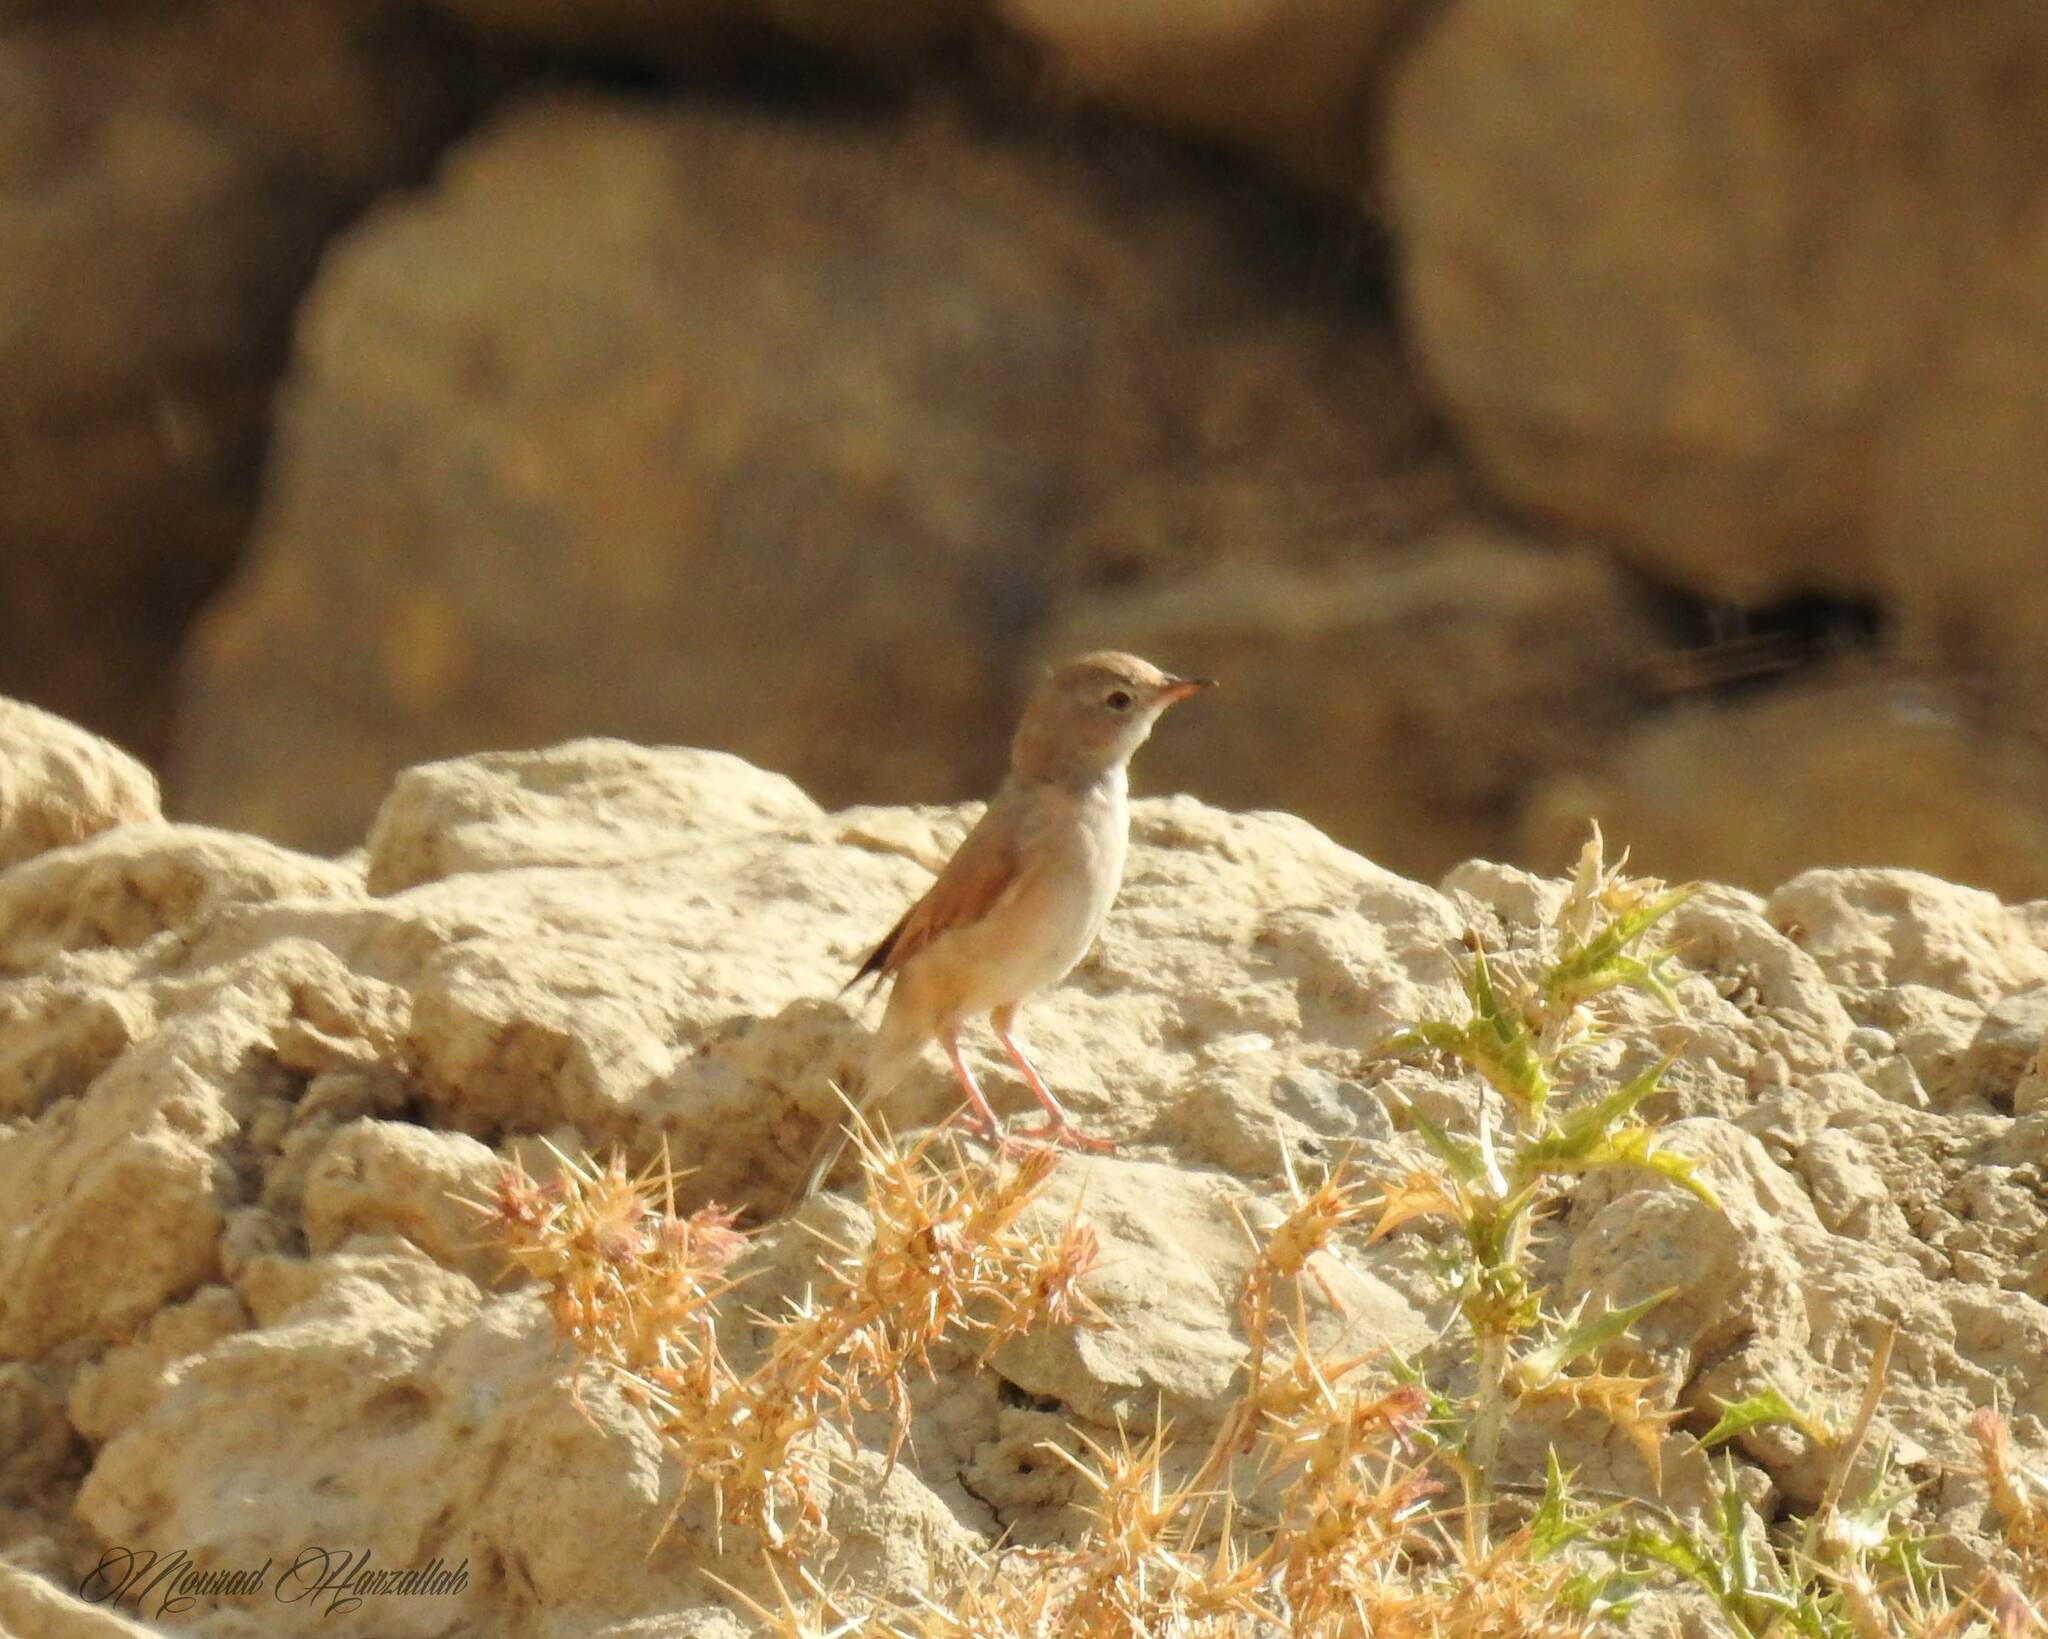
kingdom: Animalia
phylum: Chordata
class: Aves
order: Passeriformes
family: Sylviidae
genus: Sylvia
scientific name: Sylvia conspicillata
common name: Spectacled warbler
